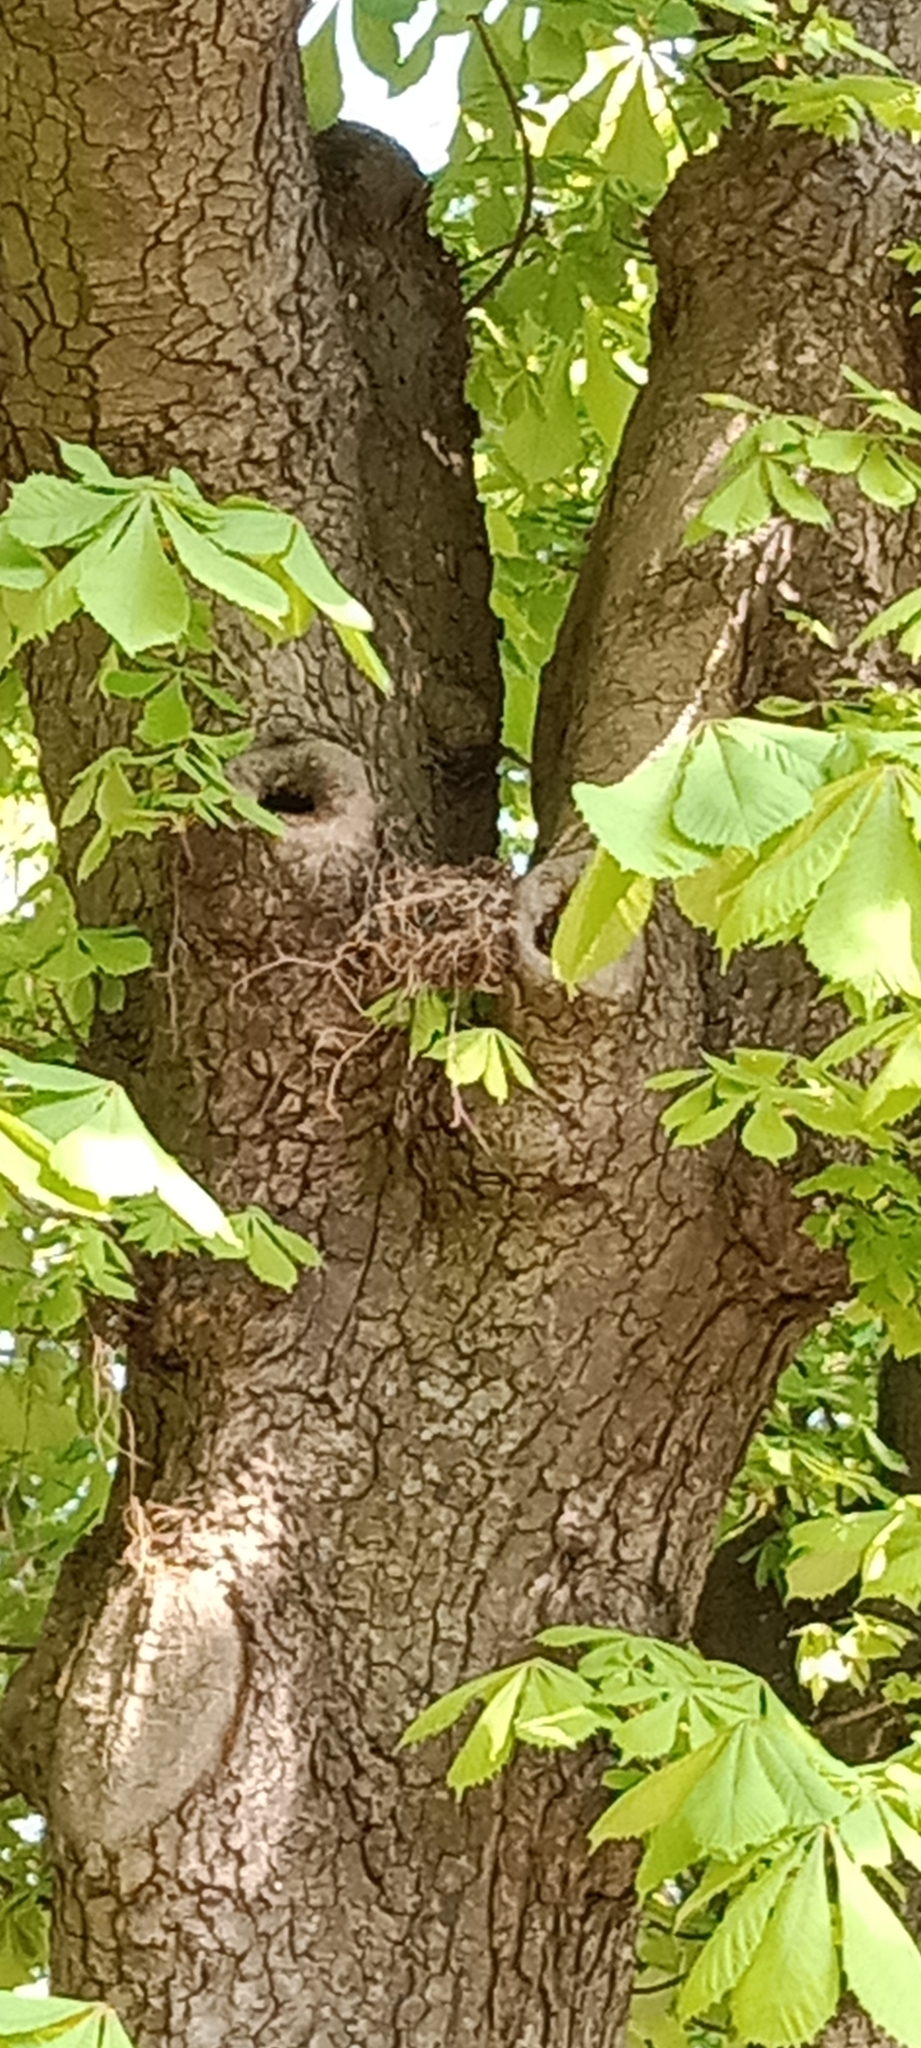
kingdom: Animalia
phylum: Chordata
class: Aves
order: Passeriformes
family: Turdidae
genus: Turdus
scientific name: Turdus merula
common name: Common blackbird
